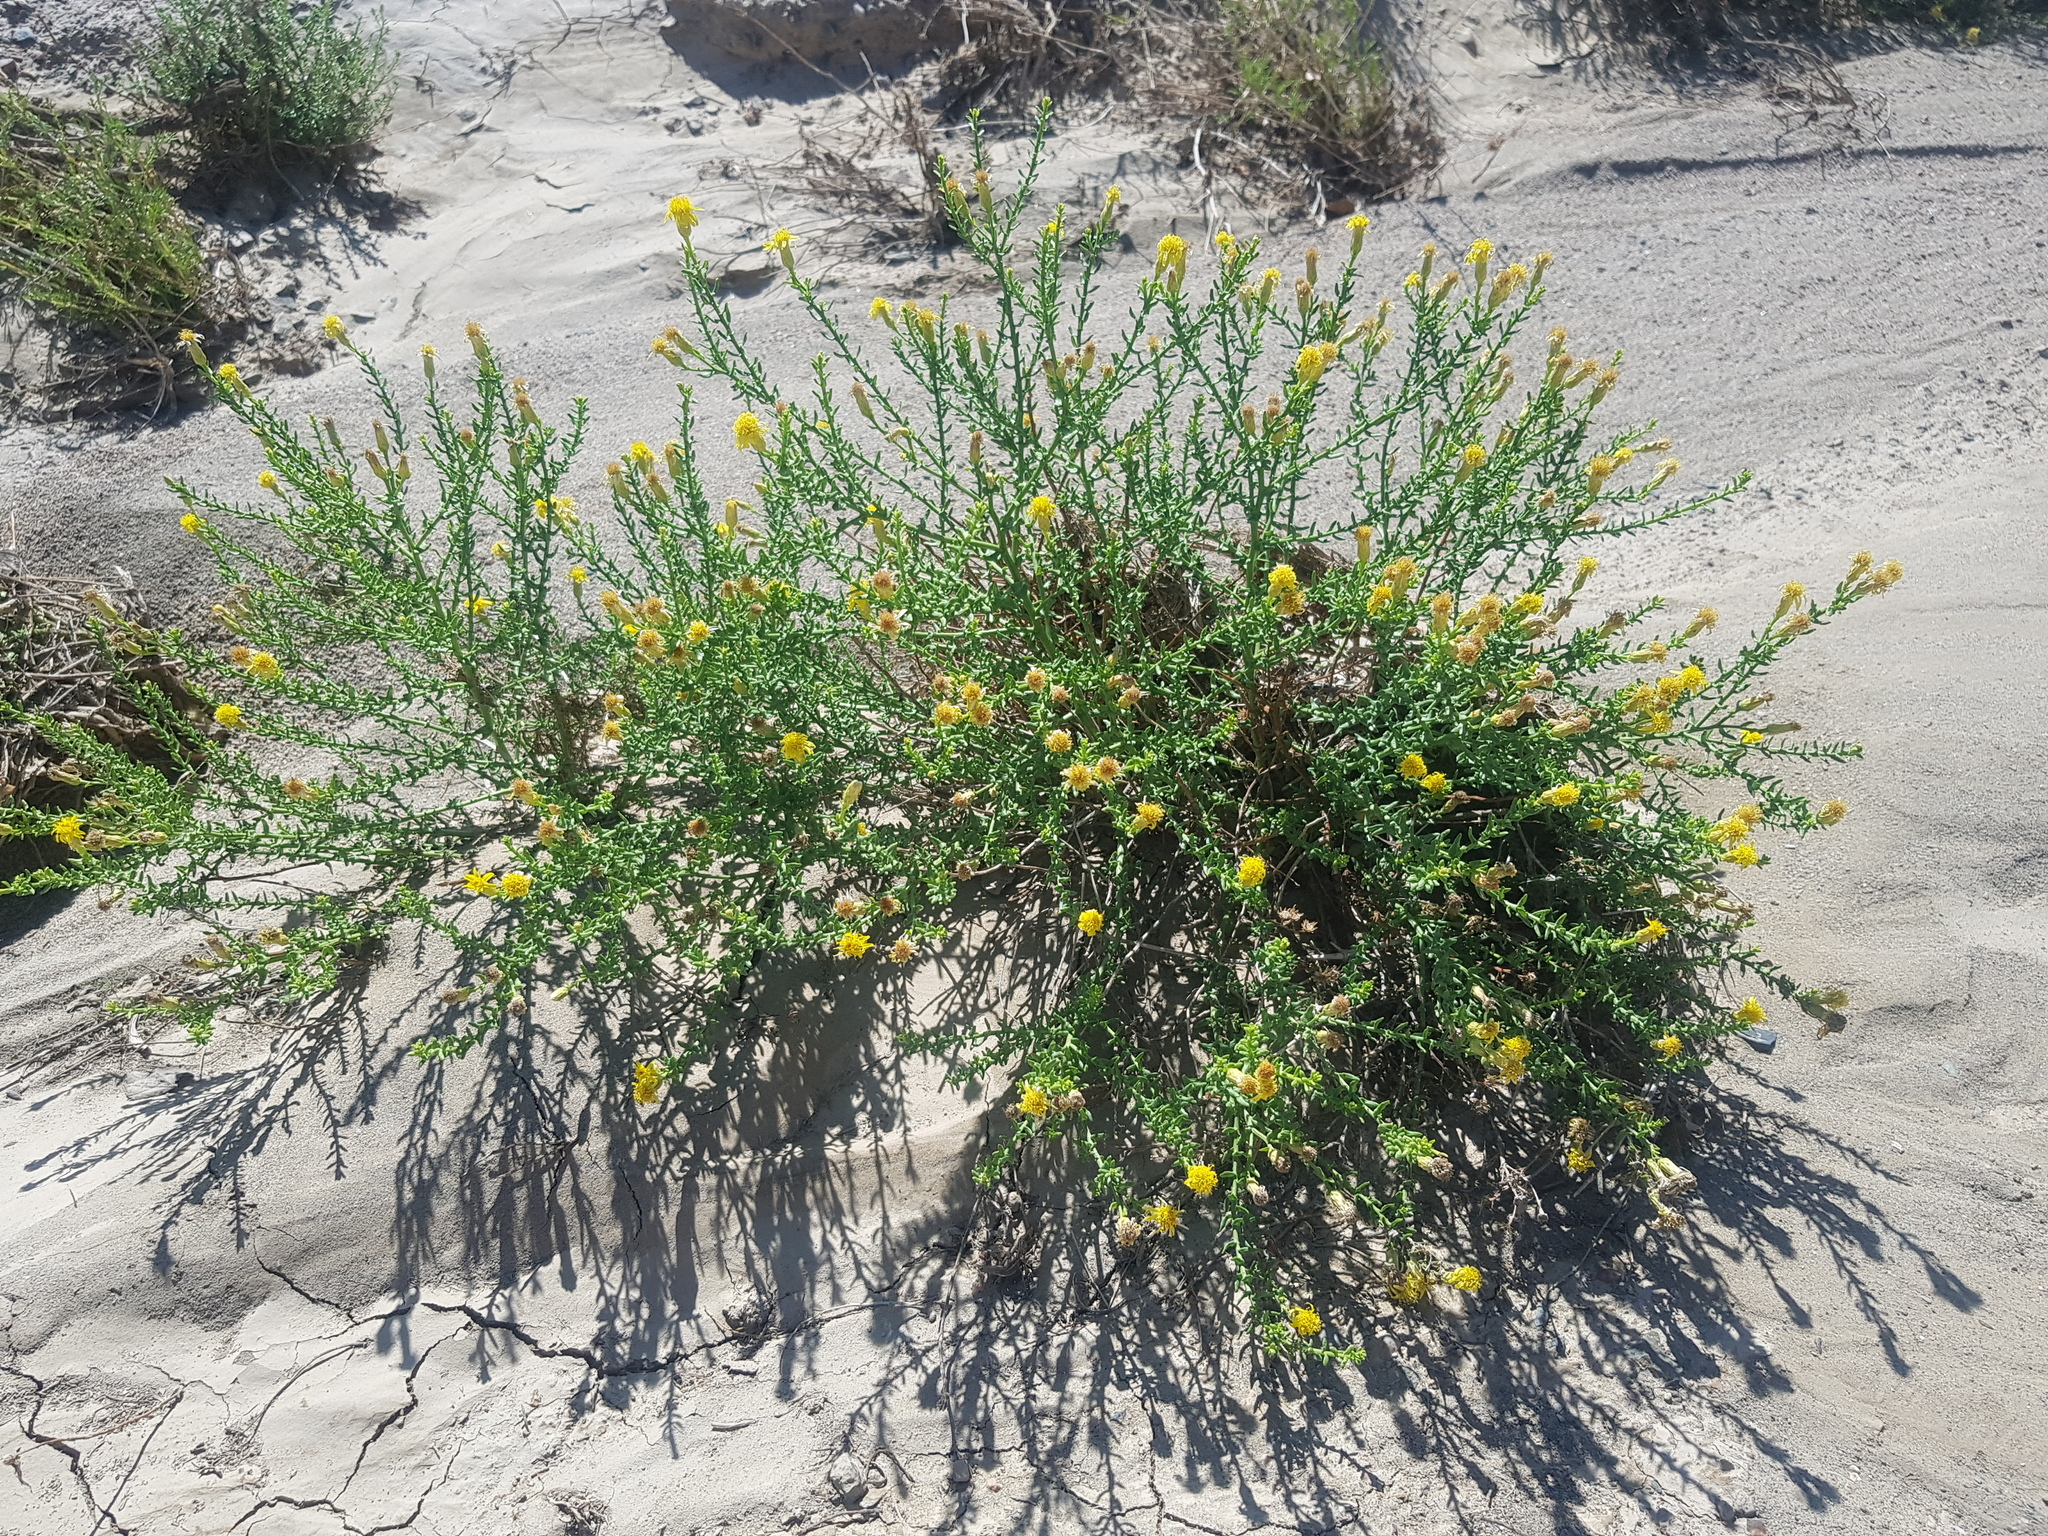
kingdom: Plantae
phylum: Tracheophyta
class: Magnoliopsida
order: Asterales
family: Asteraceae
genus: Inula
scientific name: Inula salsoloides
